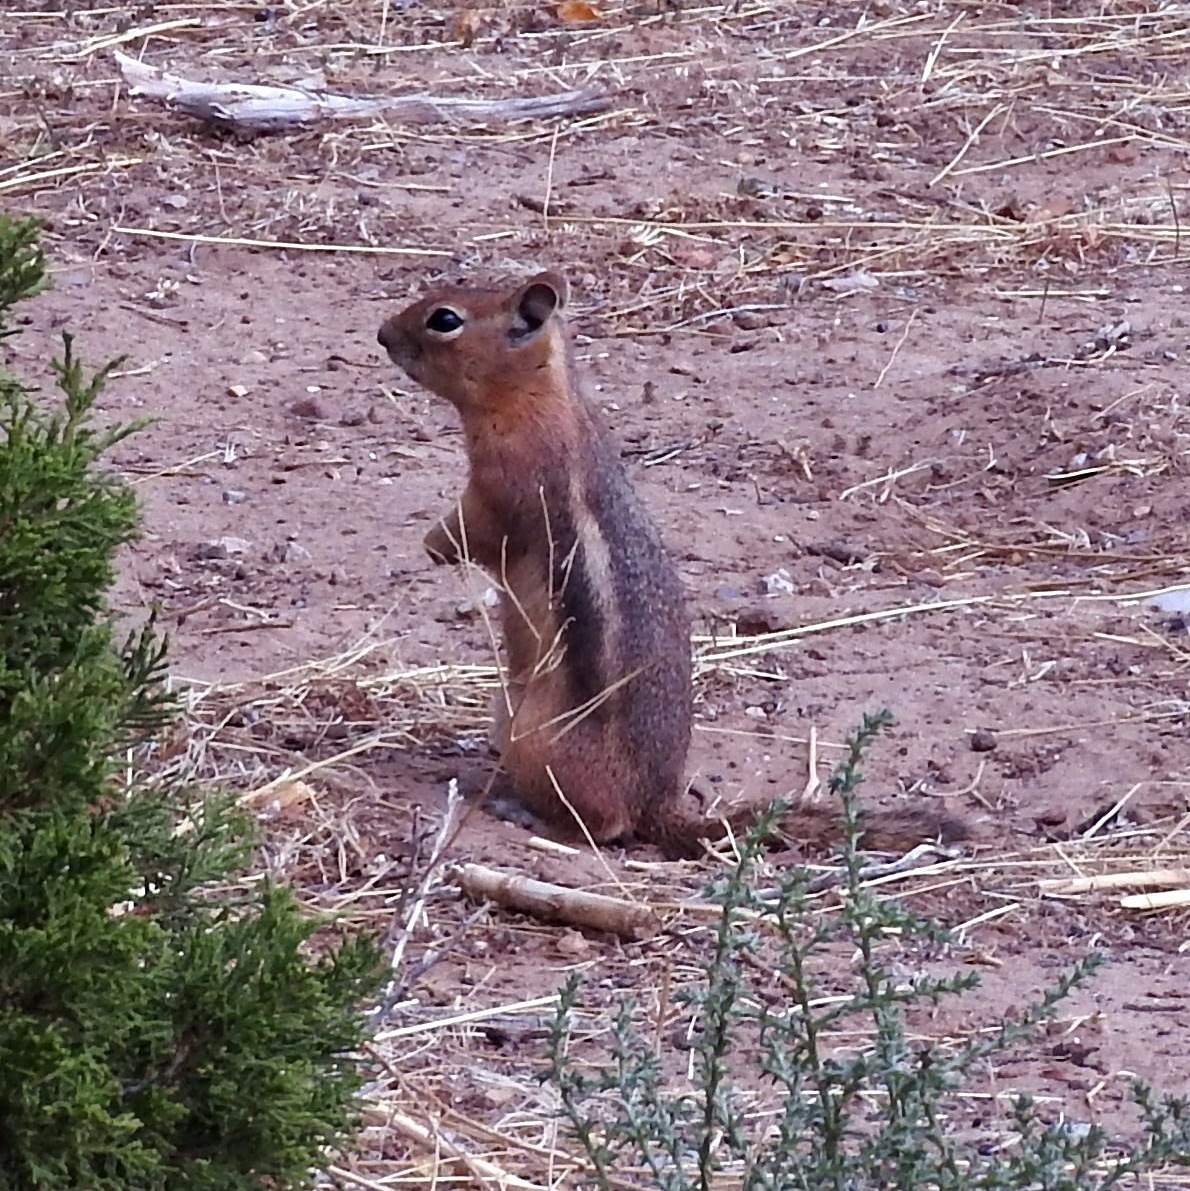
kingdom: Animalia
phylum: Chordata
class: Mammalia
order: Rodentia
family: Sciuridae
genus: Callospermophilus
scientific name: Callospermophilus lateralis
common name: Golden-mantled ground squirrel
